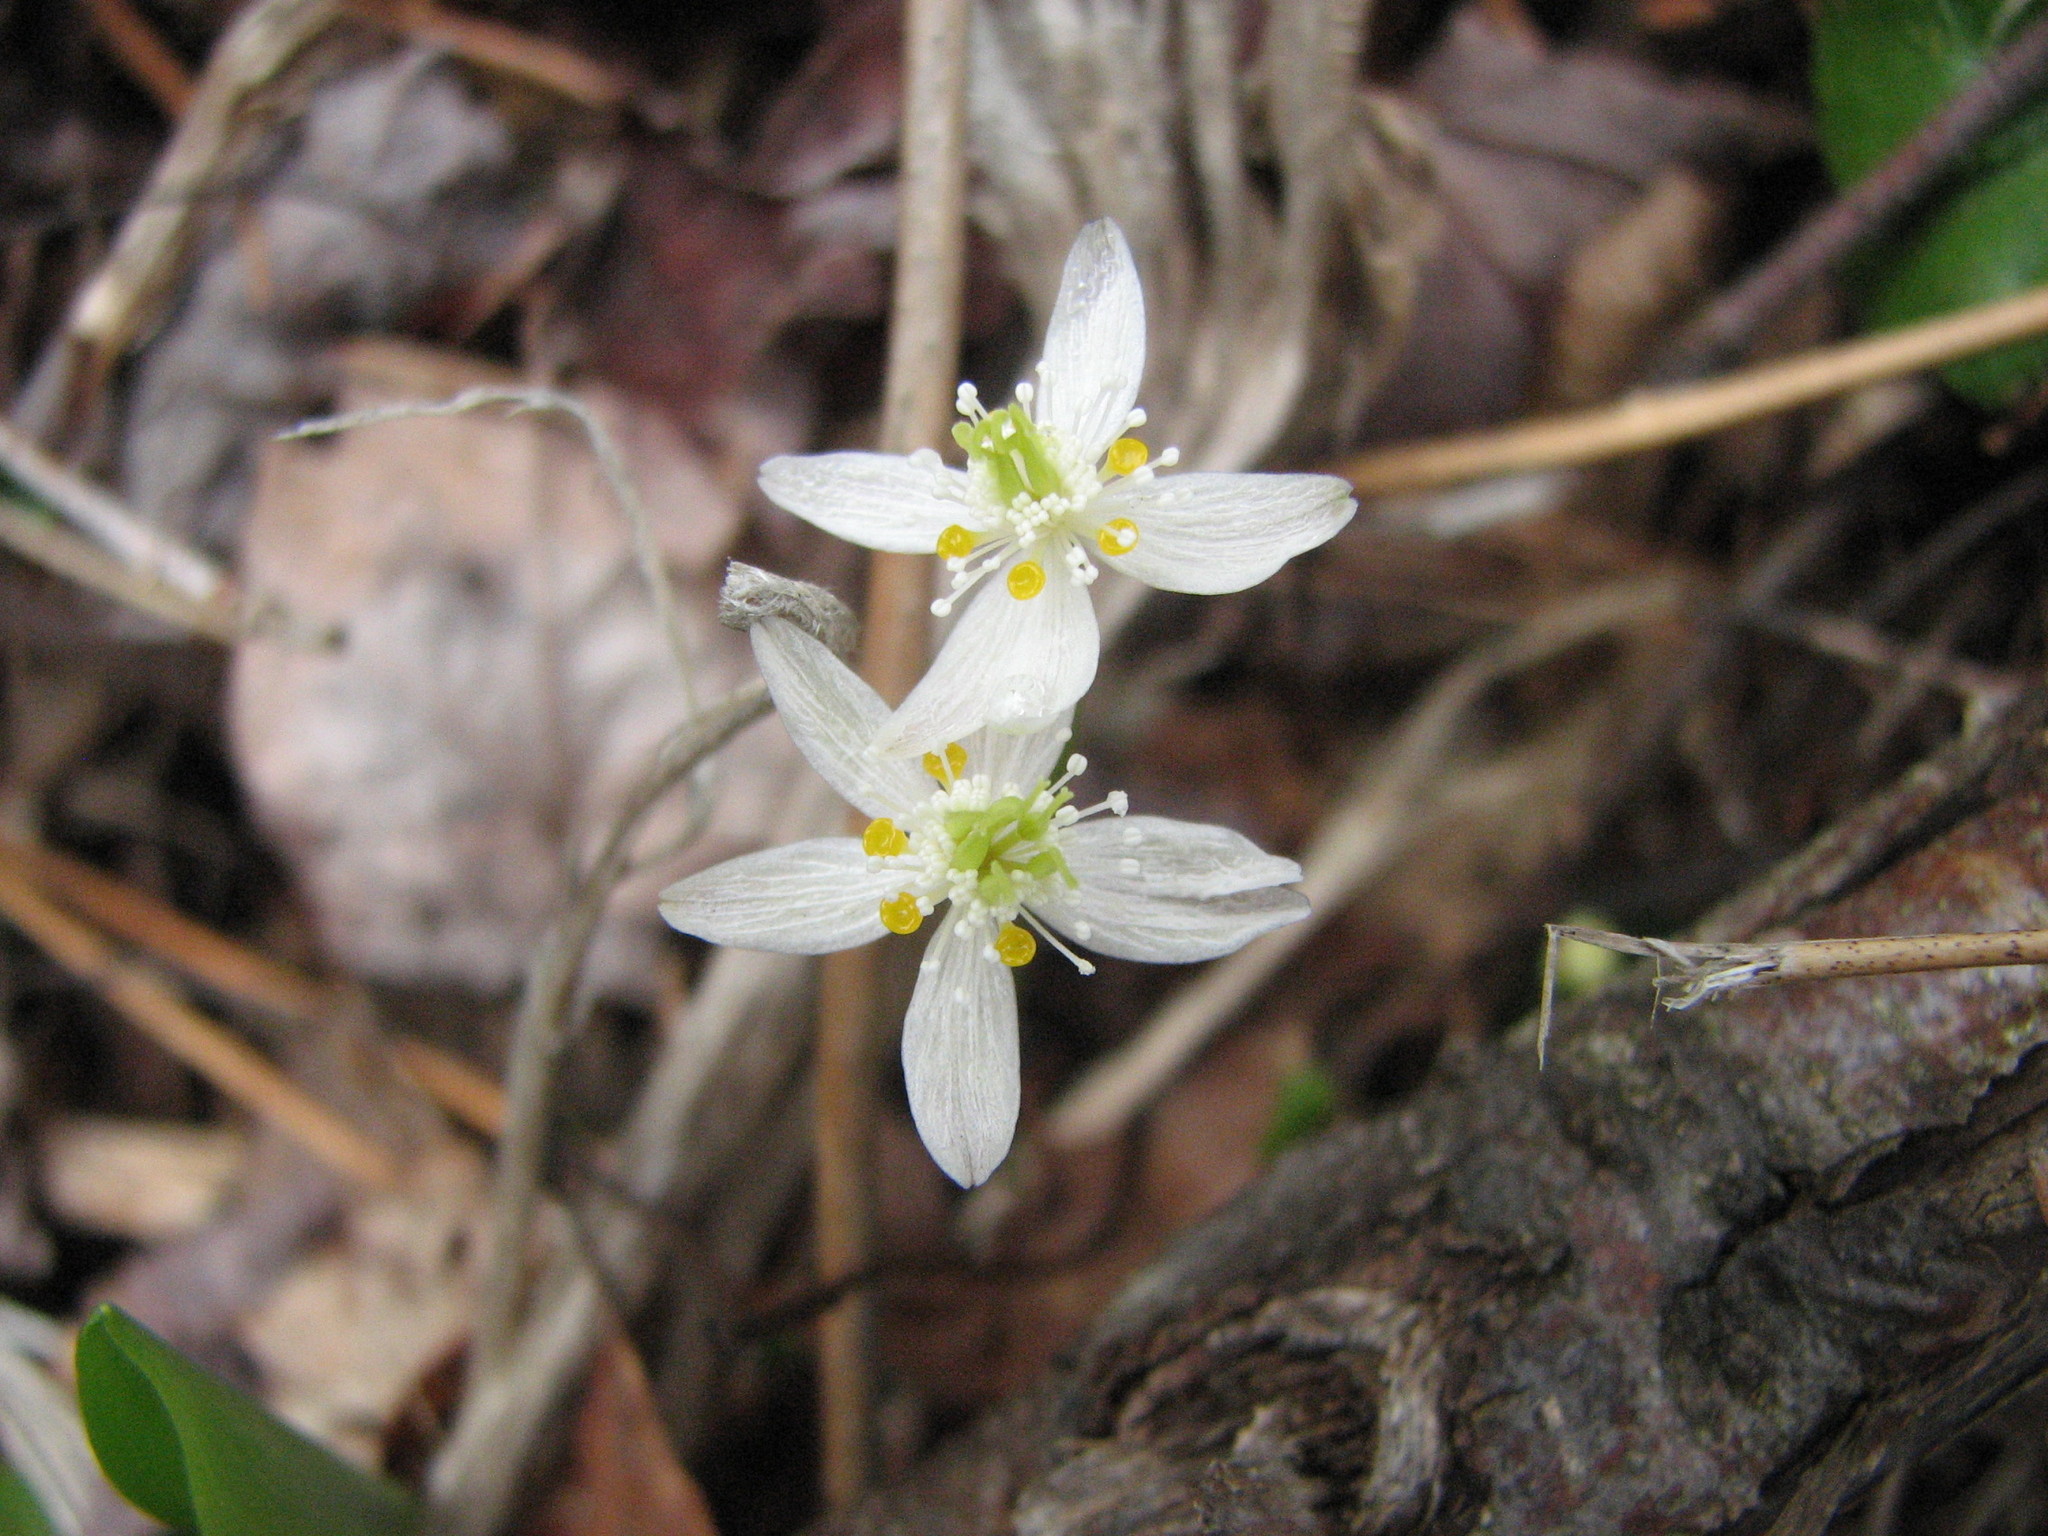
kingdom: Plantae
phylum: Tracheophyta
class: Magnoliopsida
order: Ranunculales
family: Ranunculaceae
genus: Coptis
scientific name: Coptis trifolia
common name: Canker-root
